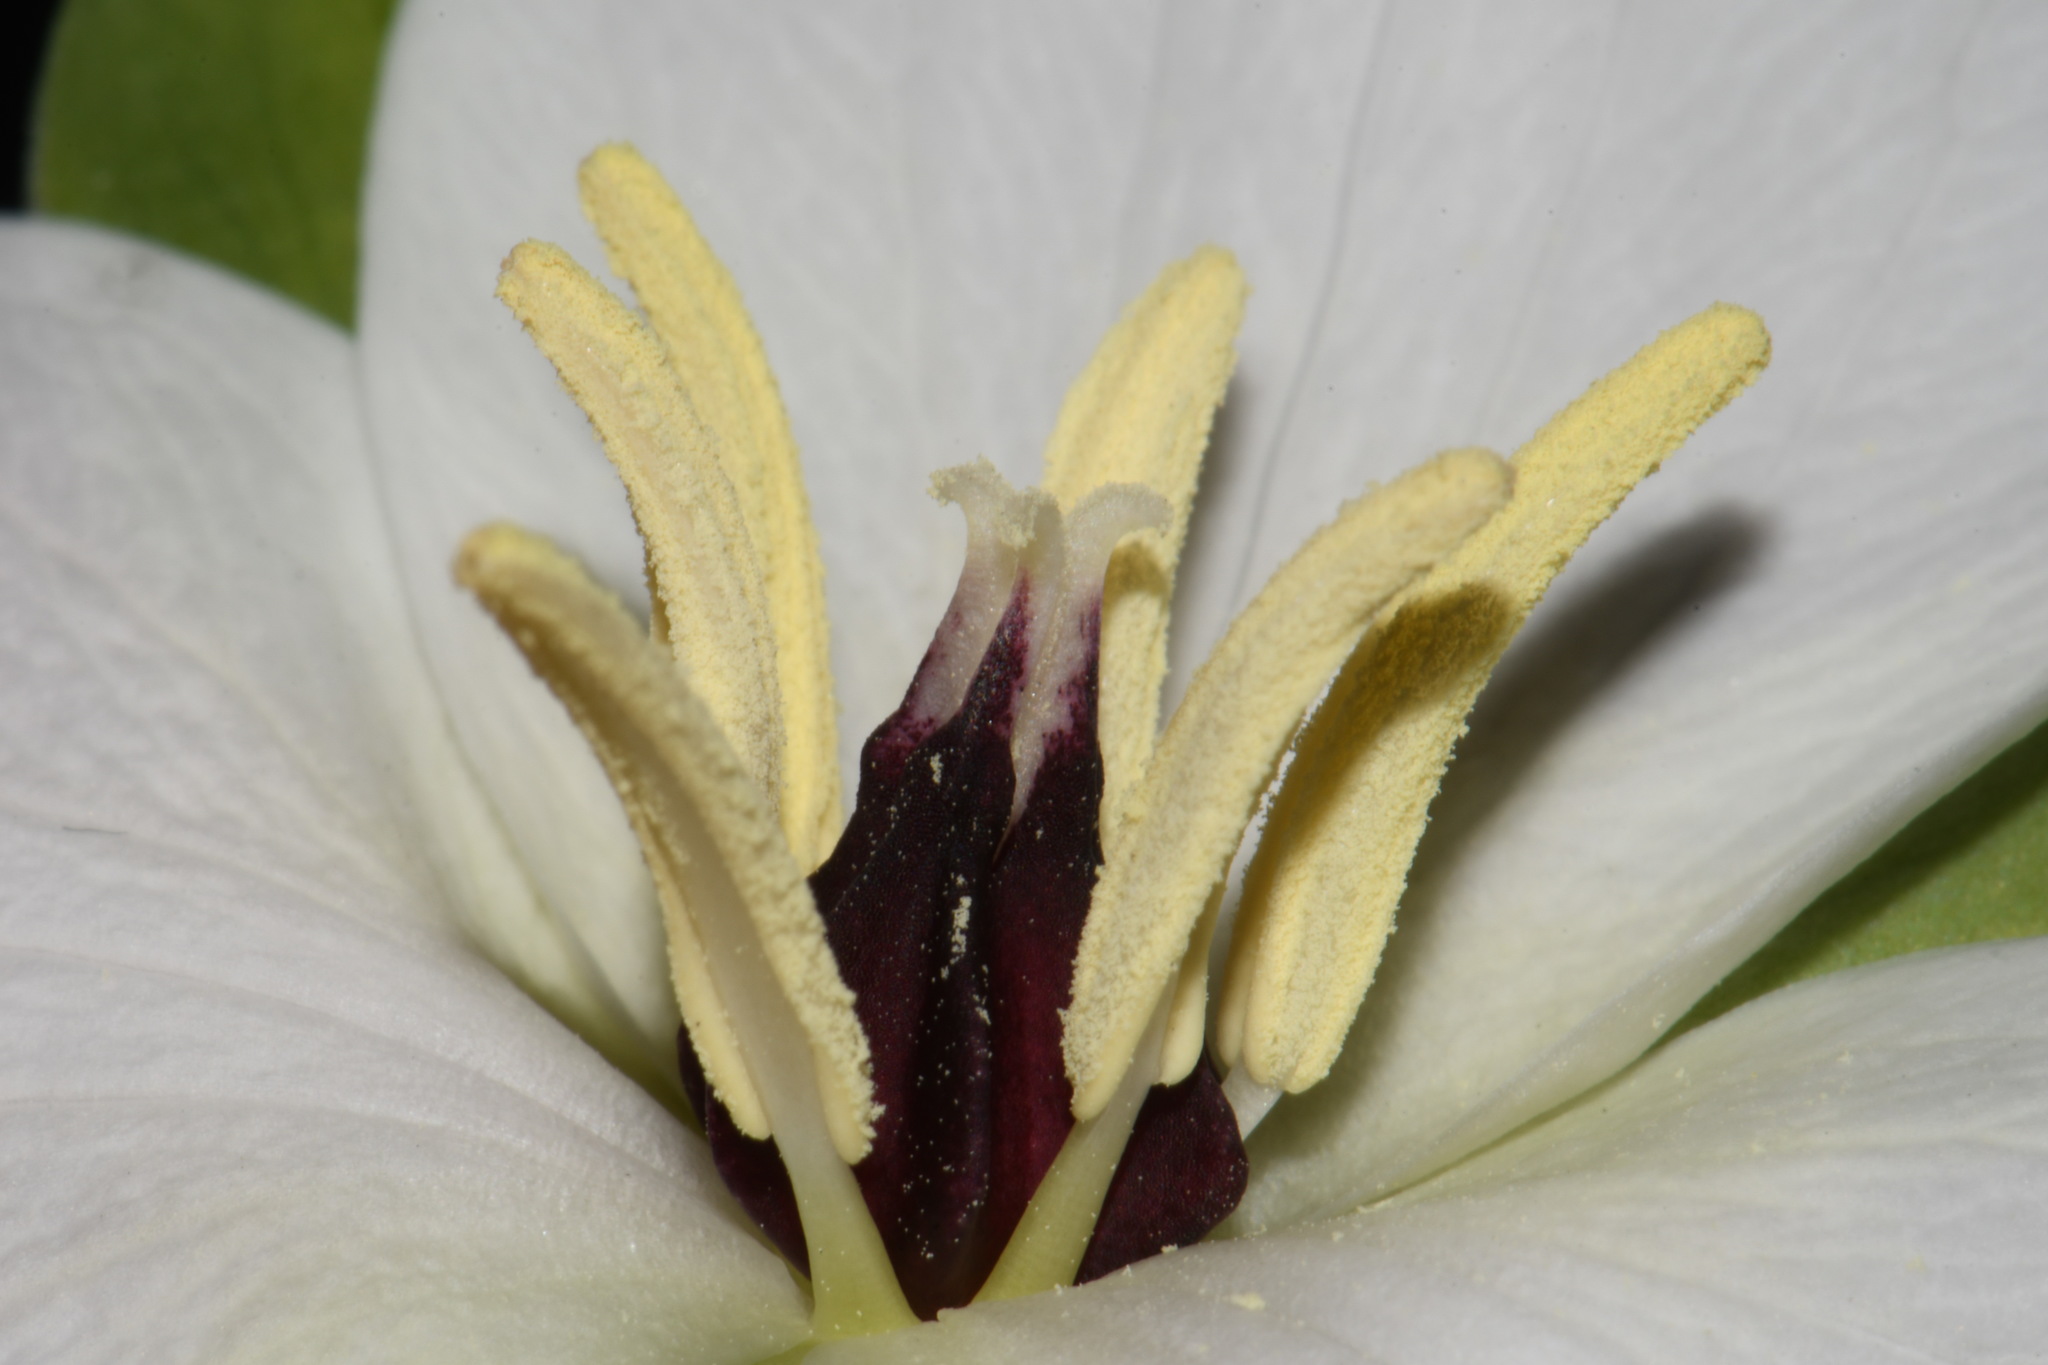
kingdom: Plantae
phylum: Tracheophyta
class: Liliopsida
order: Liliales
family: Melanthiaceae
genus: Trillium
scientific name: Trillium simile
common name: Confusing trillium
